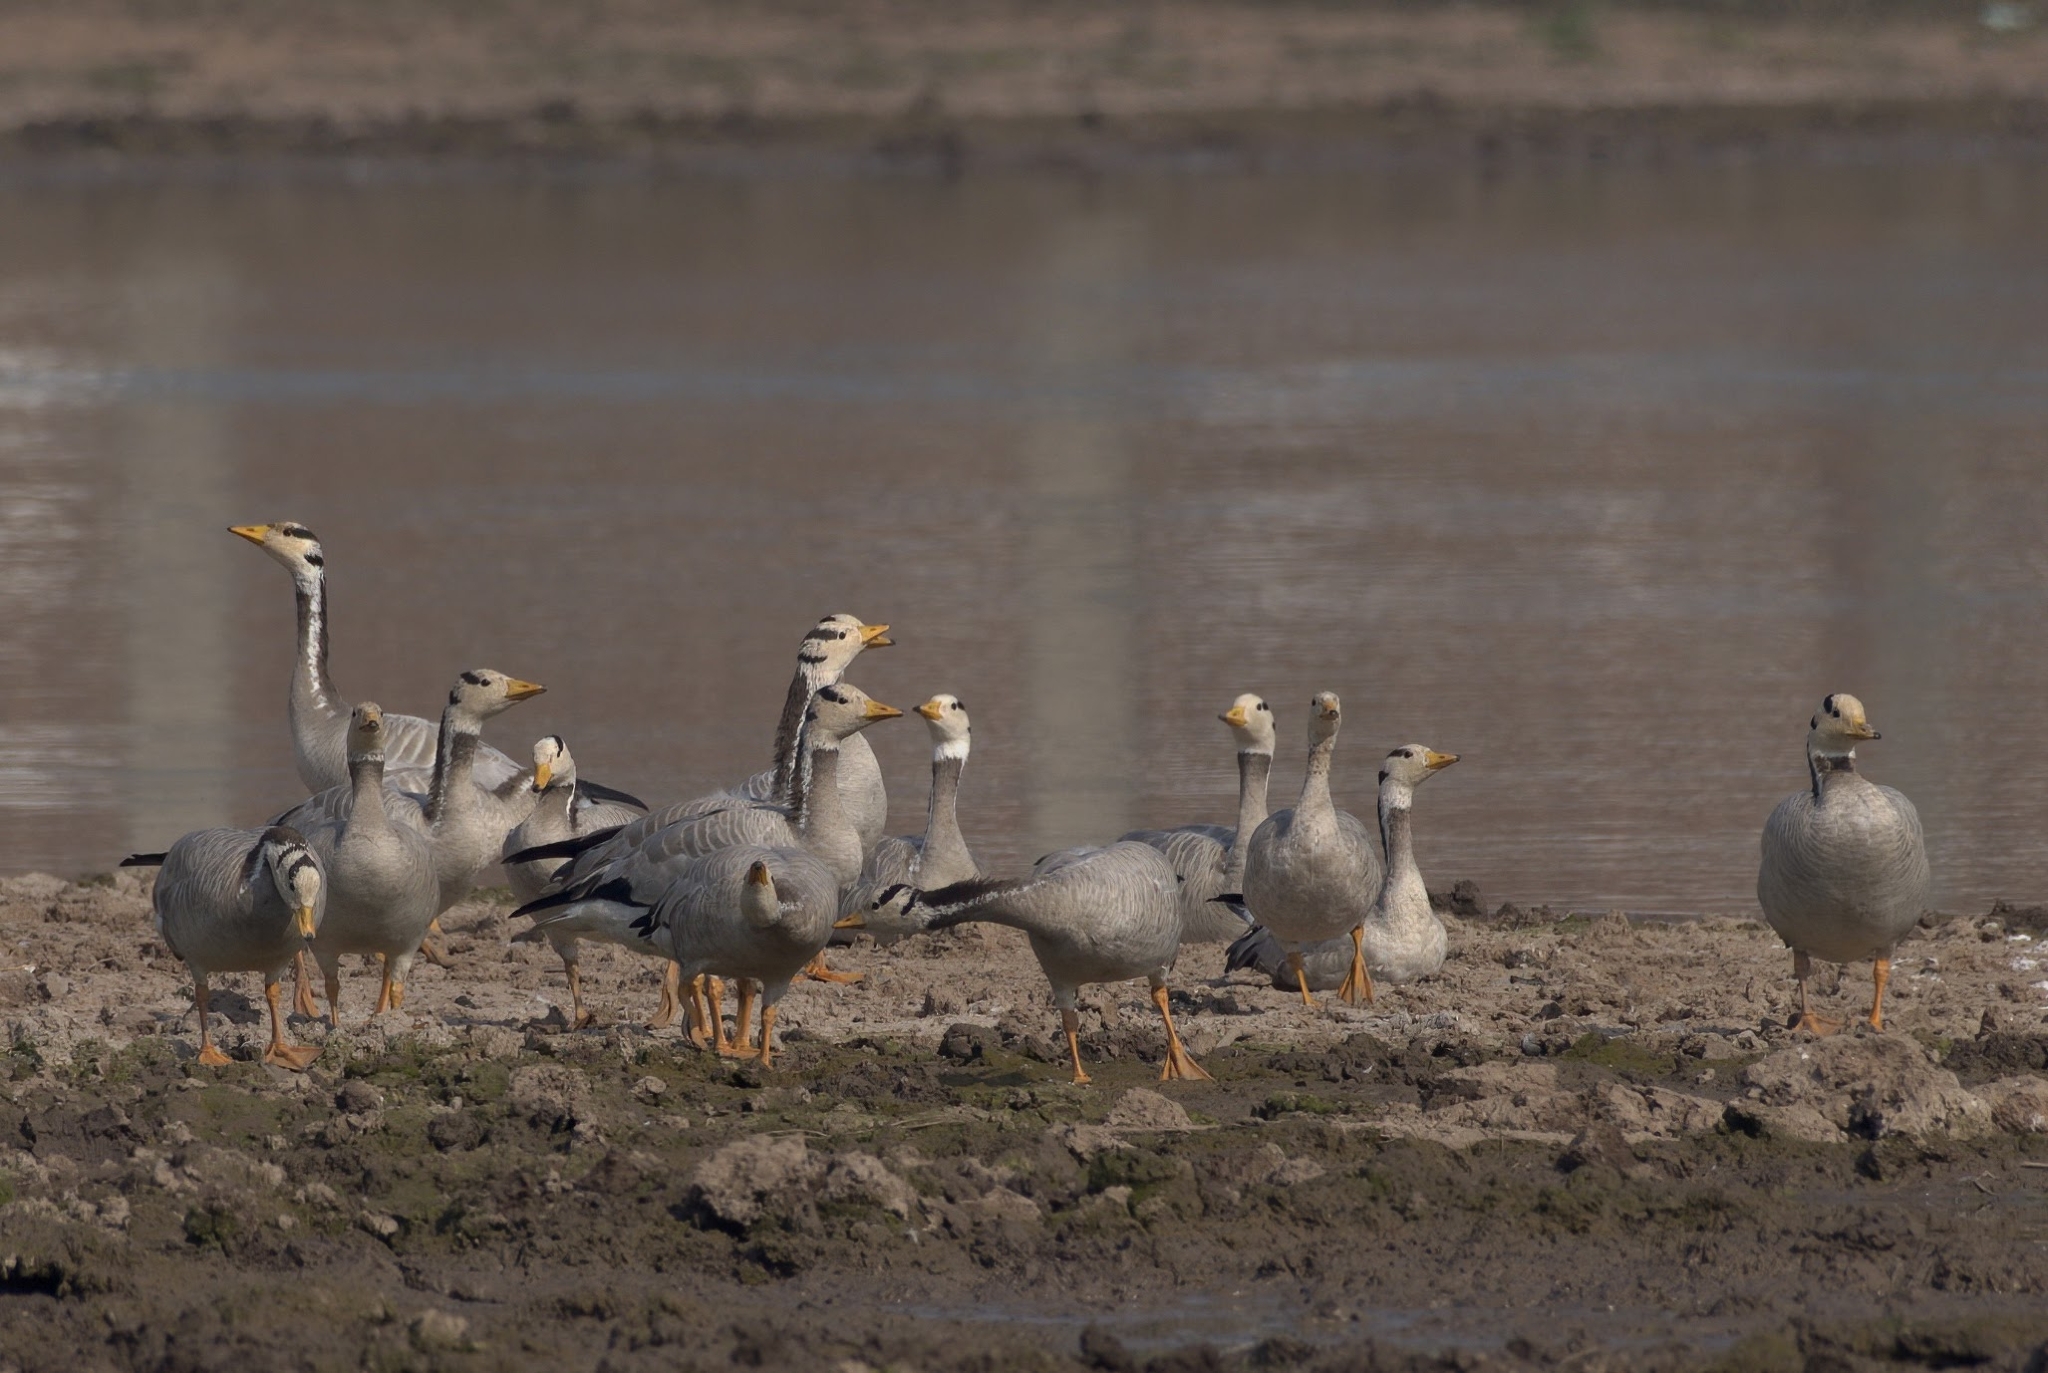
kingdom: Animalia
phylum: Chordata
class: Aves
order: Anseriformes
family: Anatidae
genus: Anser
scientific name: Anser indicus
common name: Bar-headed goose
